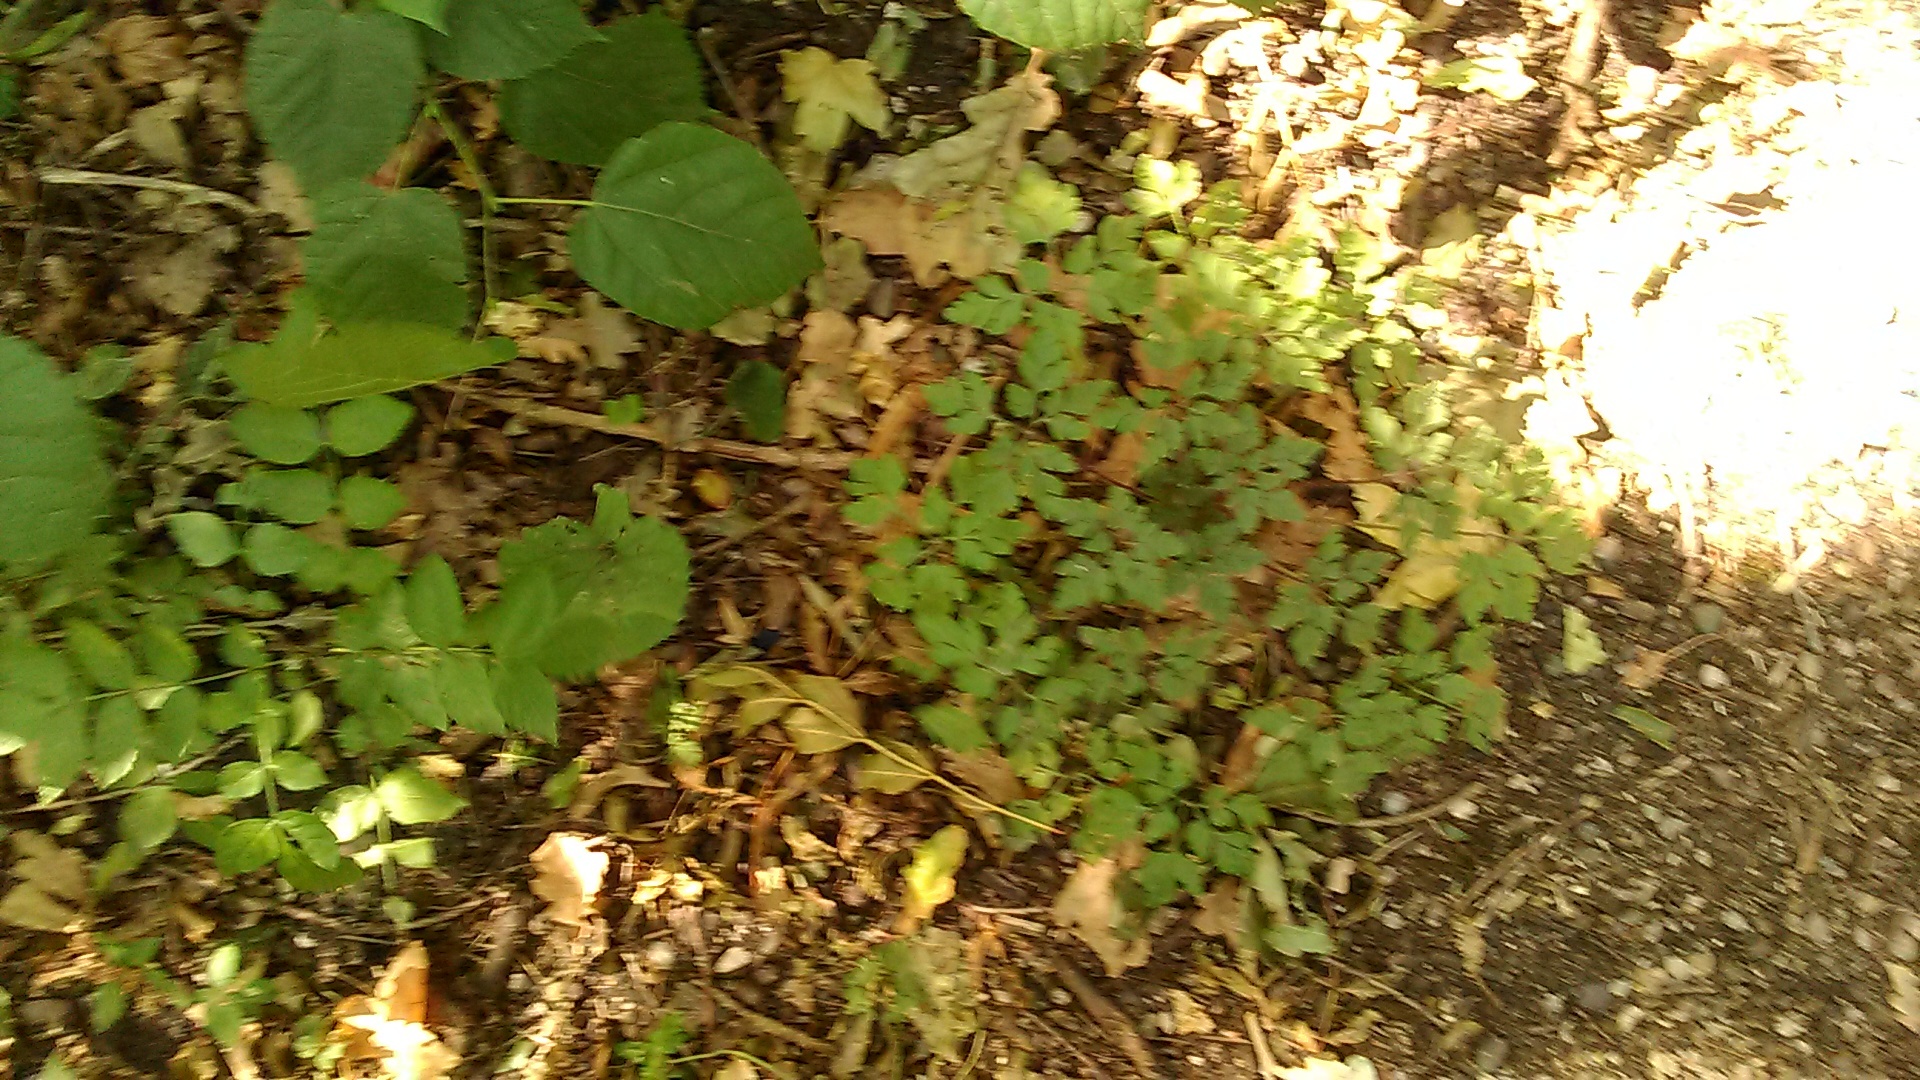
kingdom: Plantae
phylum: Tracheophyta
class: Magnoliopsida
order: Geraniales
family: Geraniaceae
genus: Geranium
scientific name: Geranium robertianum
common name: Herb-robert
